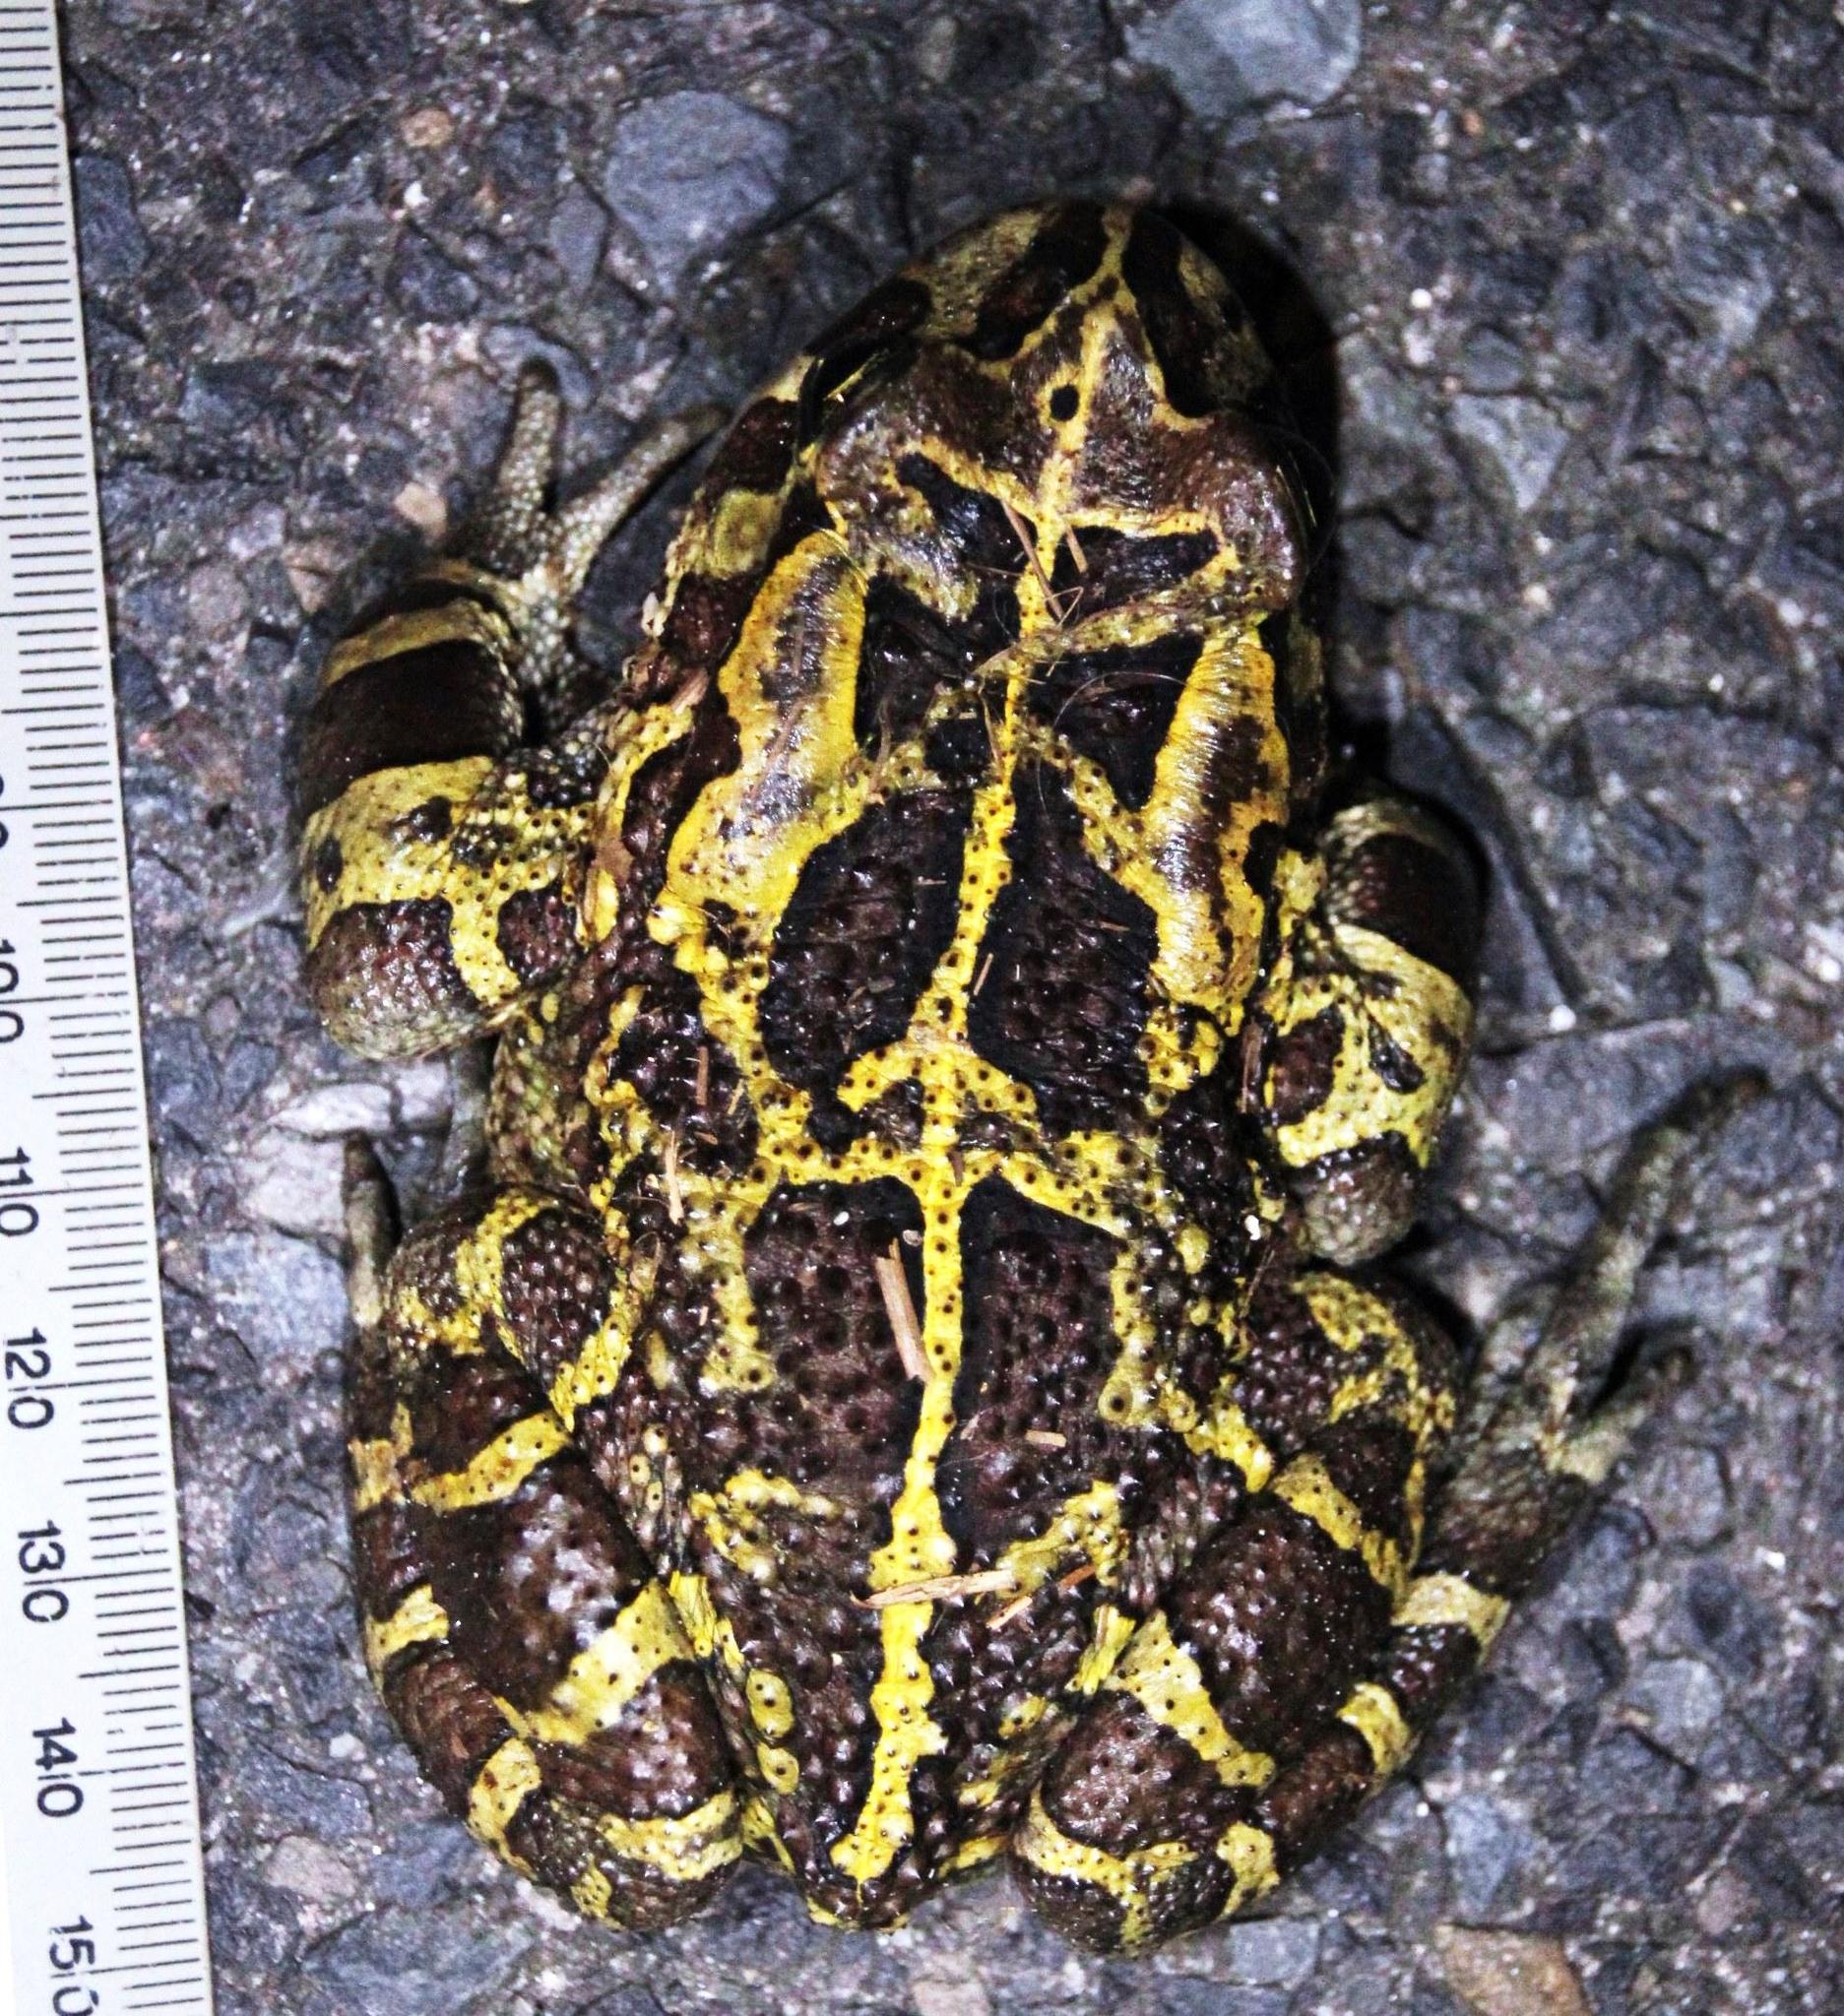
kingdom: Animalia
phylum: Chordata
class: Amphibia
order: Anura
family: Bufonidae
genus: Sclerophrys
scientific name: Sclerophrys pantherina
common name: Panther toad
